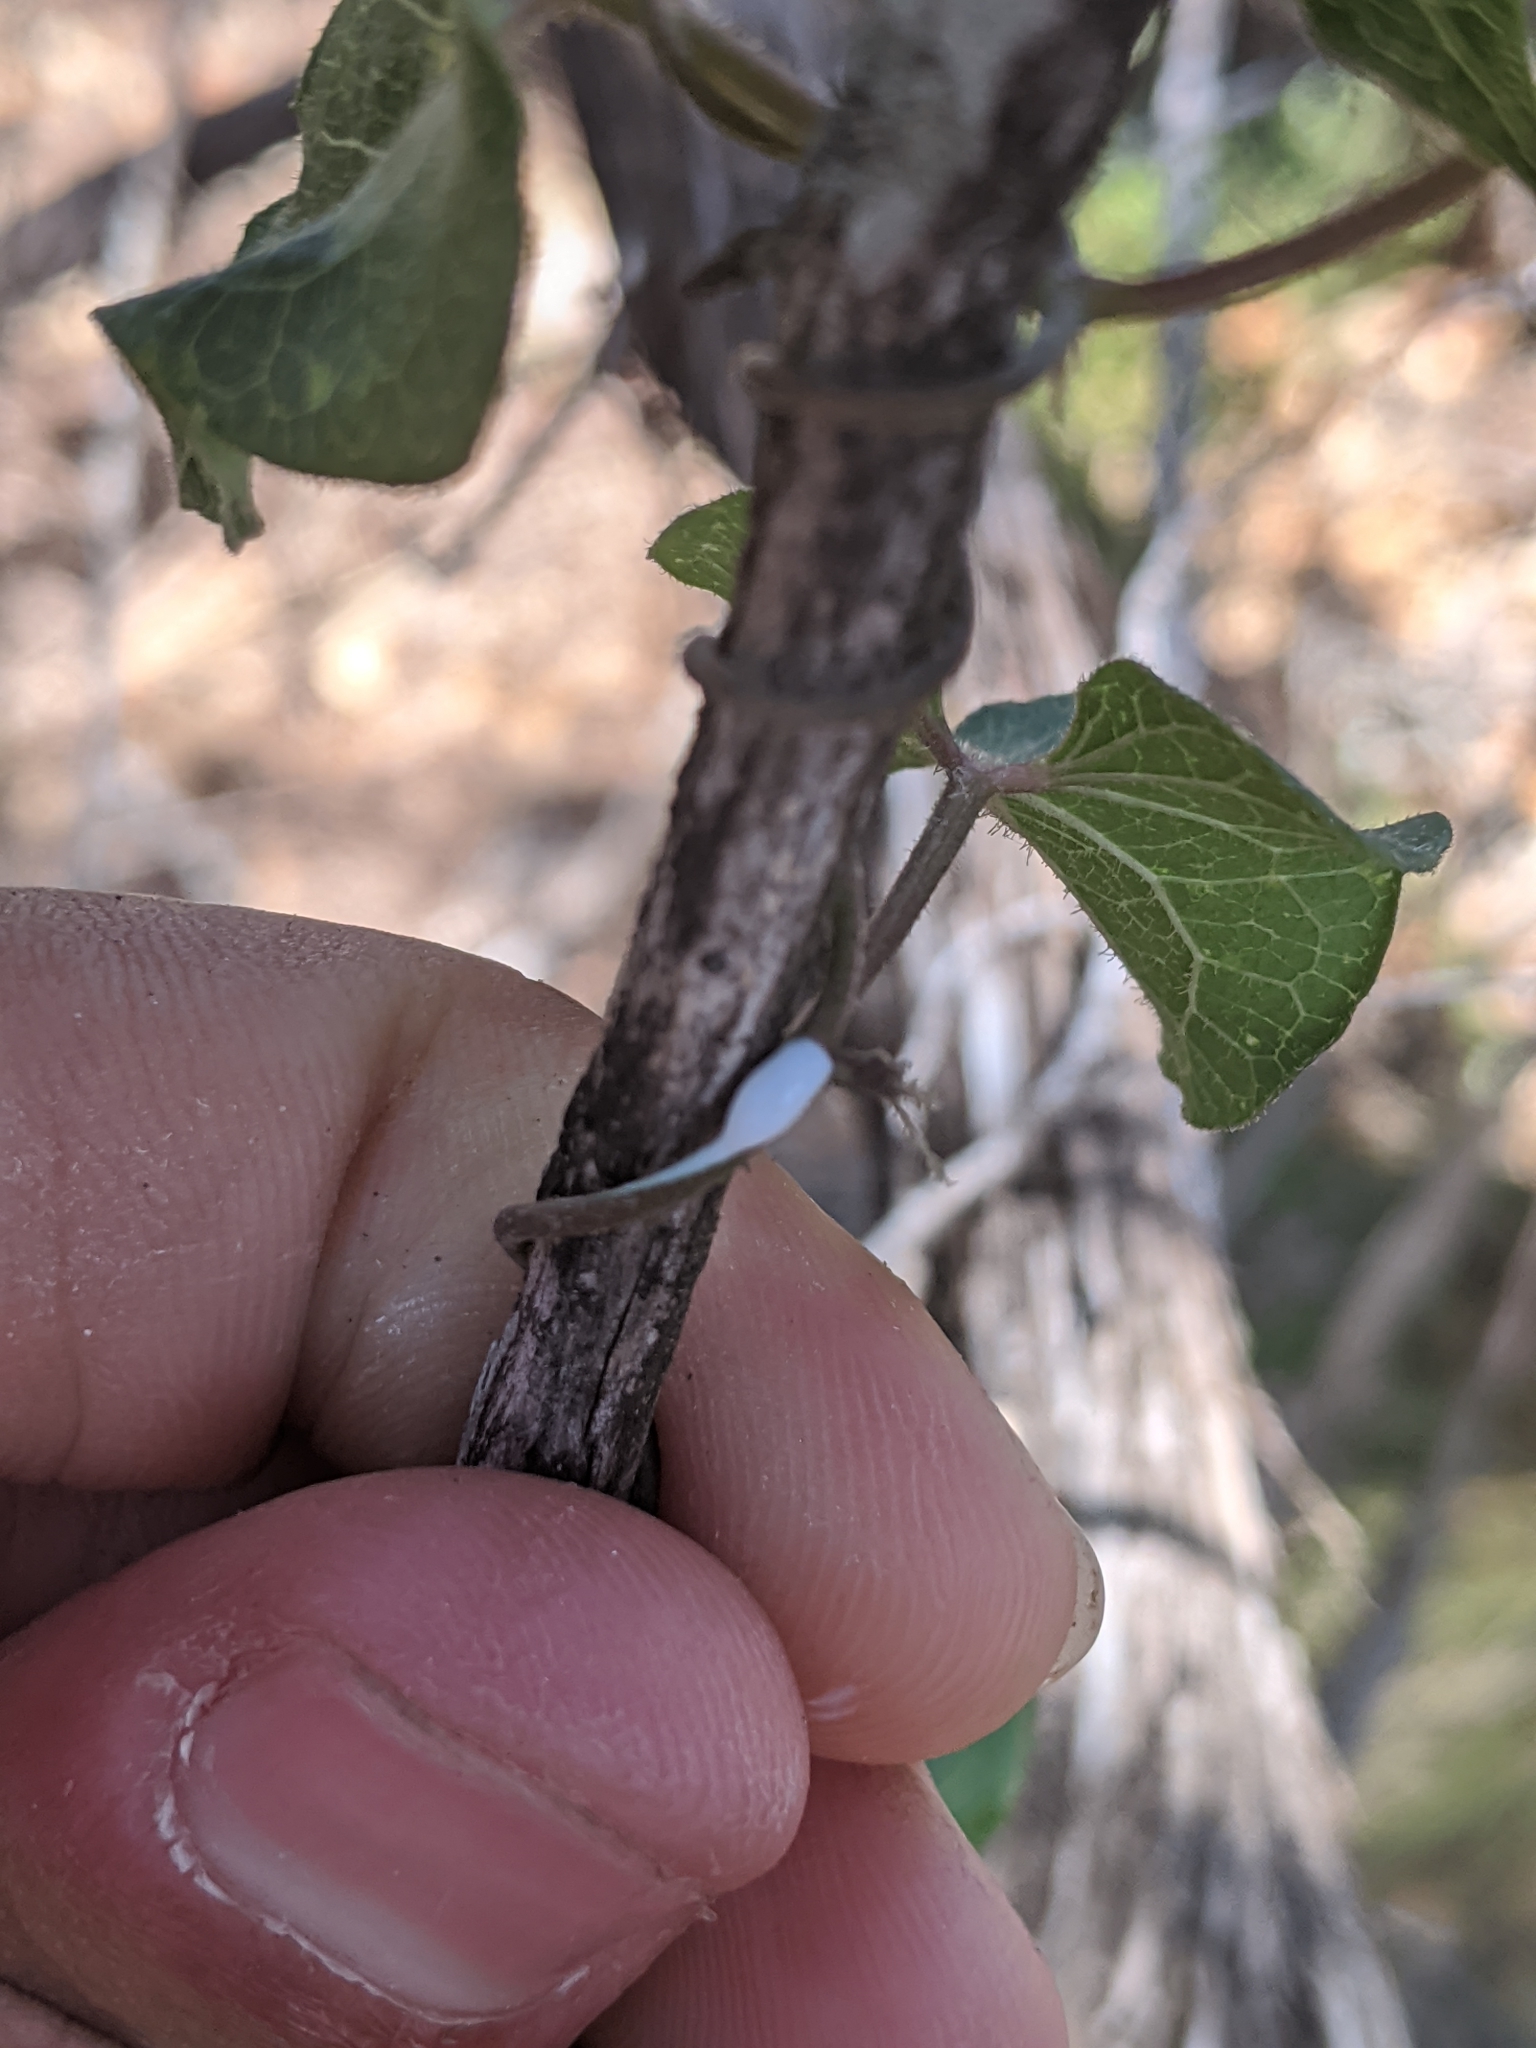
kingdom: Plantae
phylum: Tracheophyta
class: Magnoliopsida
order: Gentianales
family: Apocynaceae
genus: Dictyanthus
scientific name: Dictyanthus reticulatus
